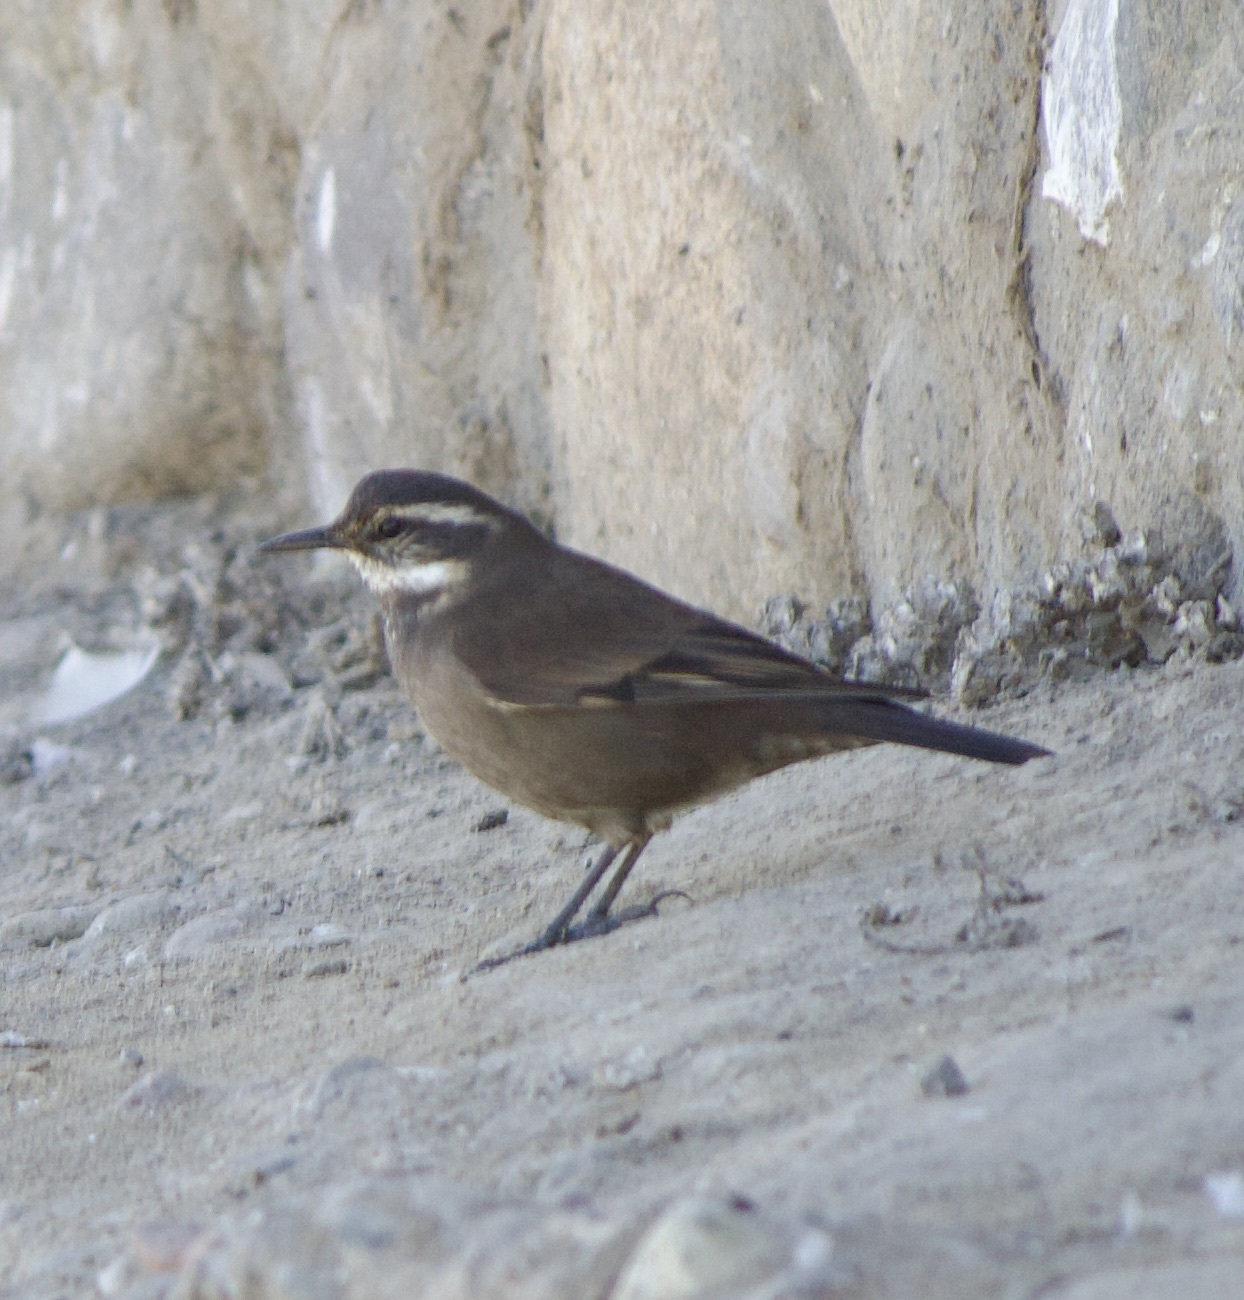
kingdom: Animalia
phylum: Chordata
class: Aves
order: Passeriformes
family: Furnariidae
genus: Cinclodes
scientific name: Cinclodes fuscus
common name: Buff-winged cinclodes
